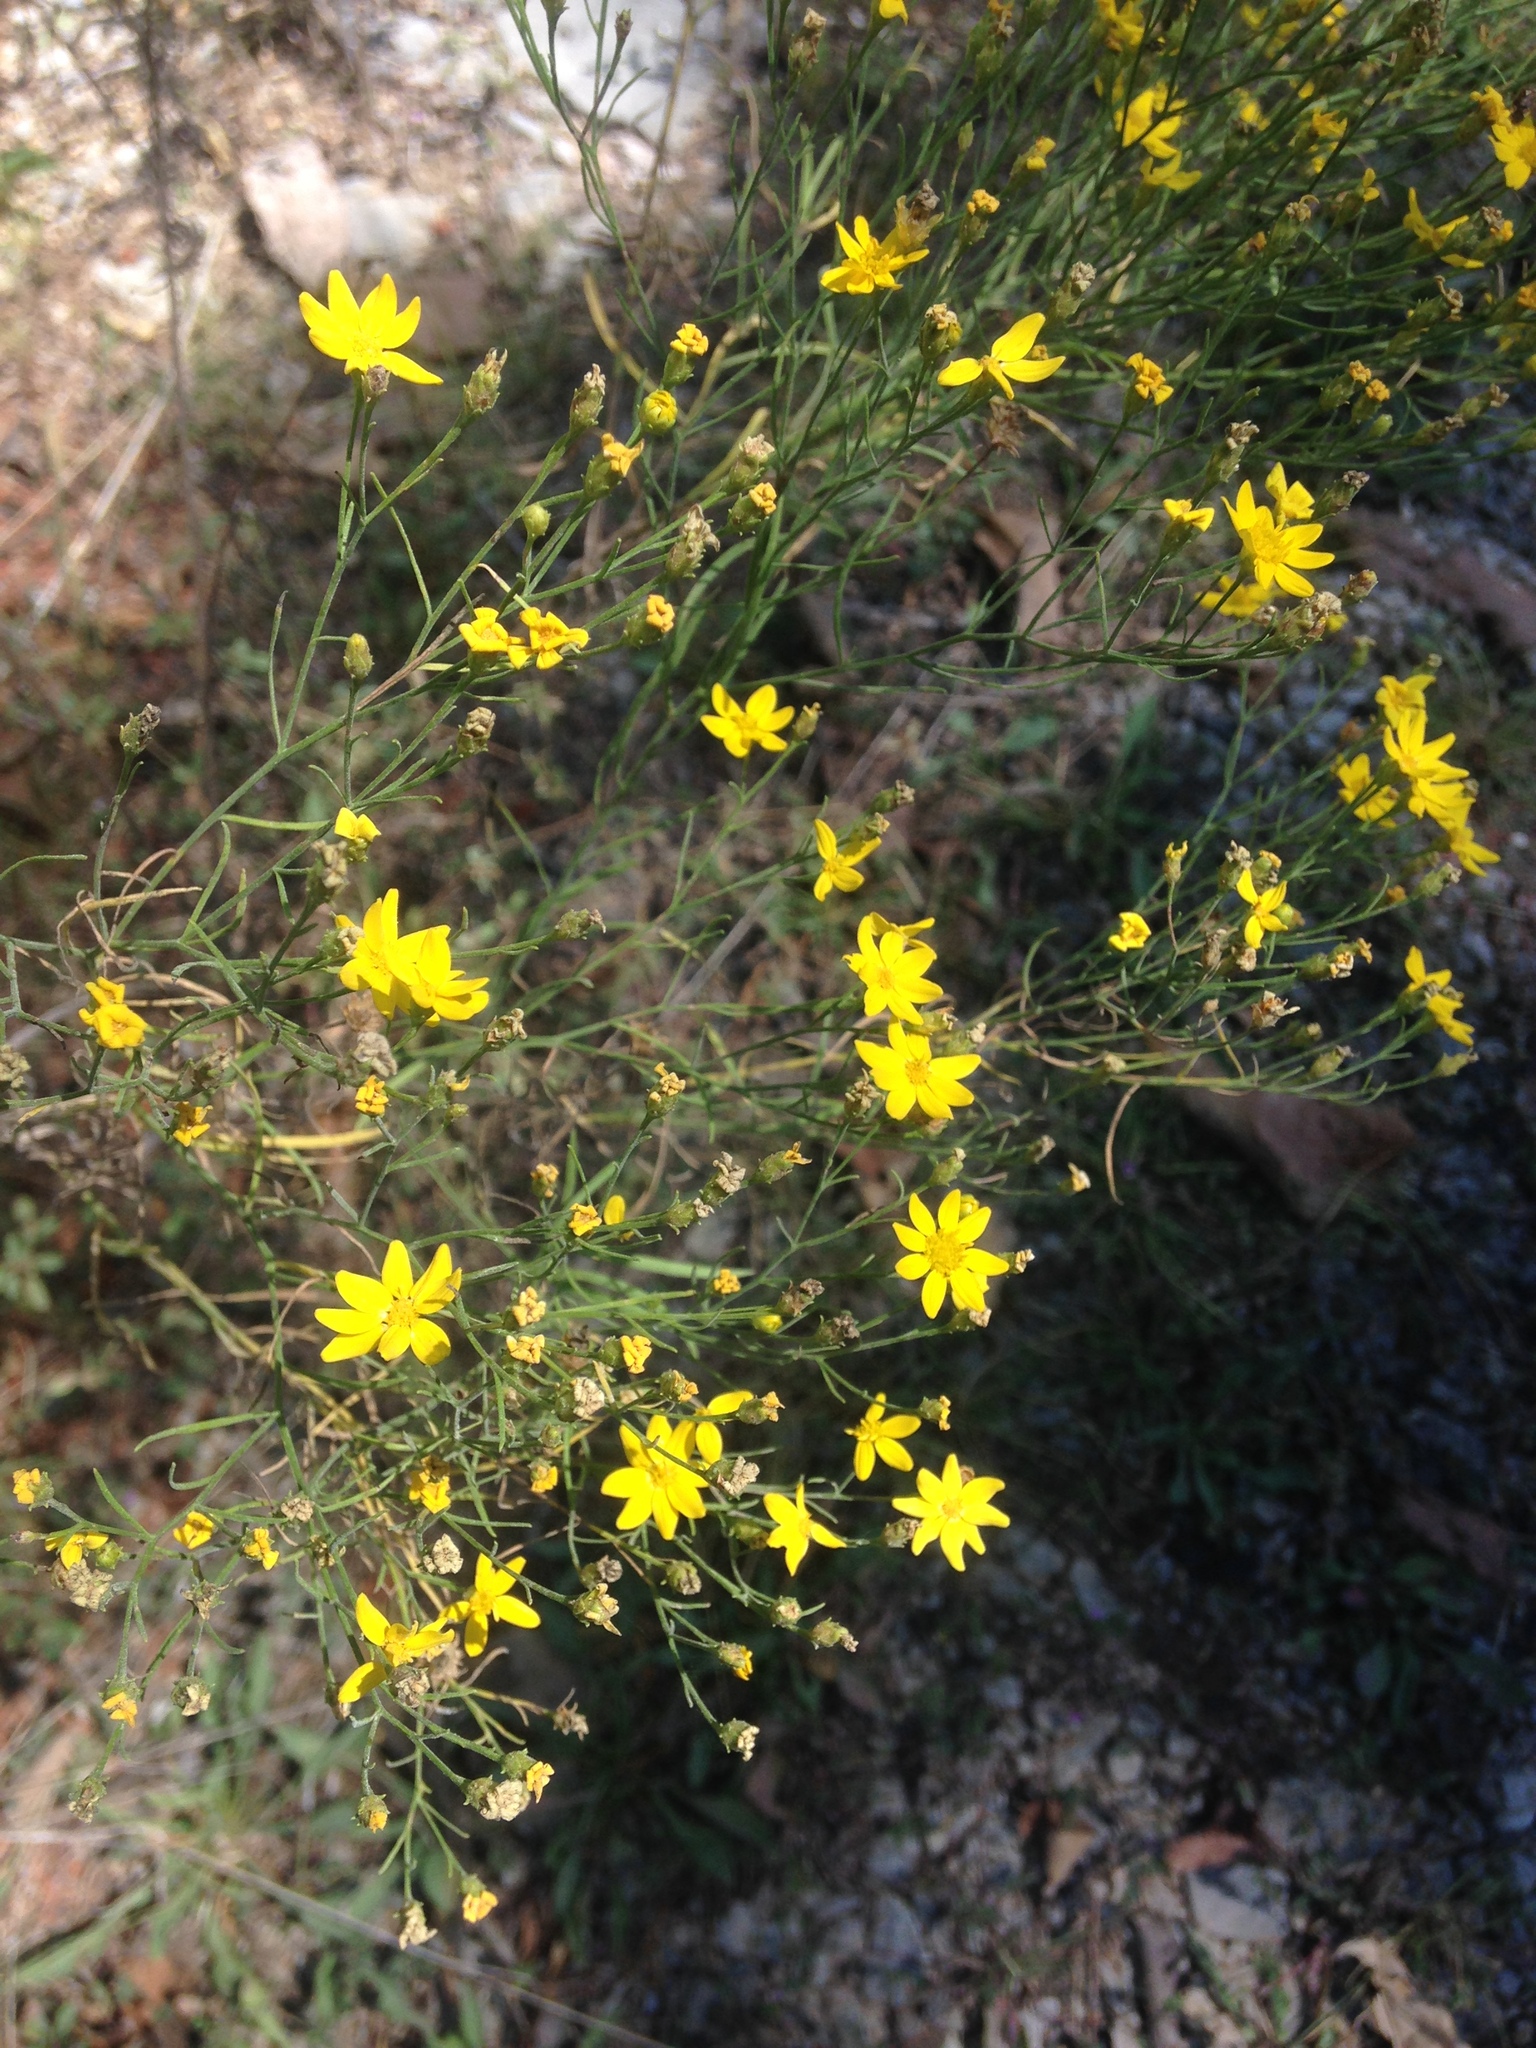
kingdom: Plantae
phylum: Tracheophyta
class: Magnoliopsida
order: Asterales
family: Asteraceae
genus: Amphiachyris
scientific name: Amphiachyris dracunculoides
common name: Broomweed
